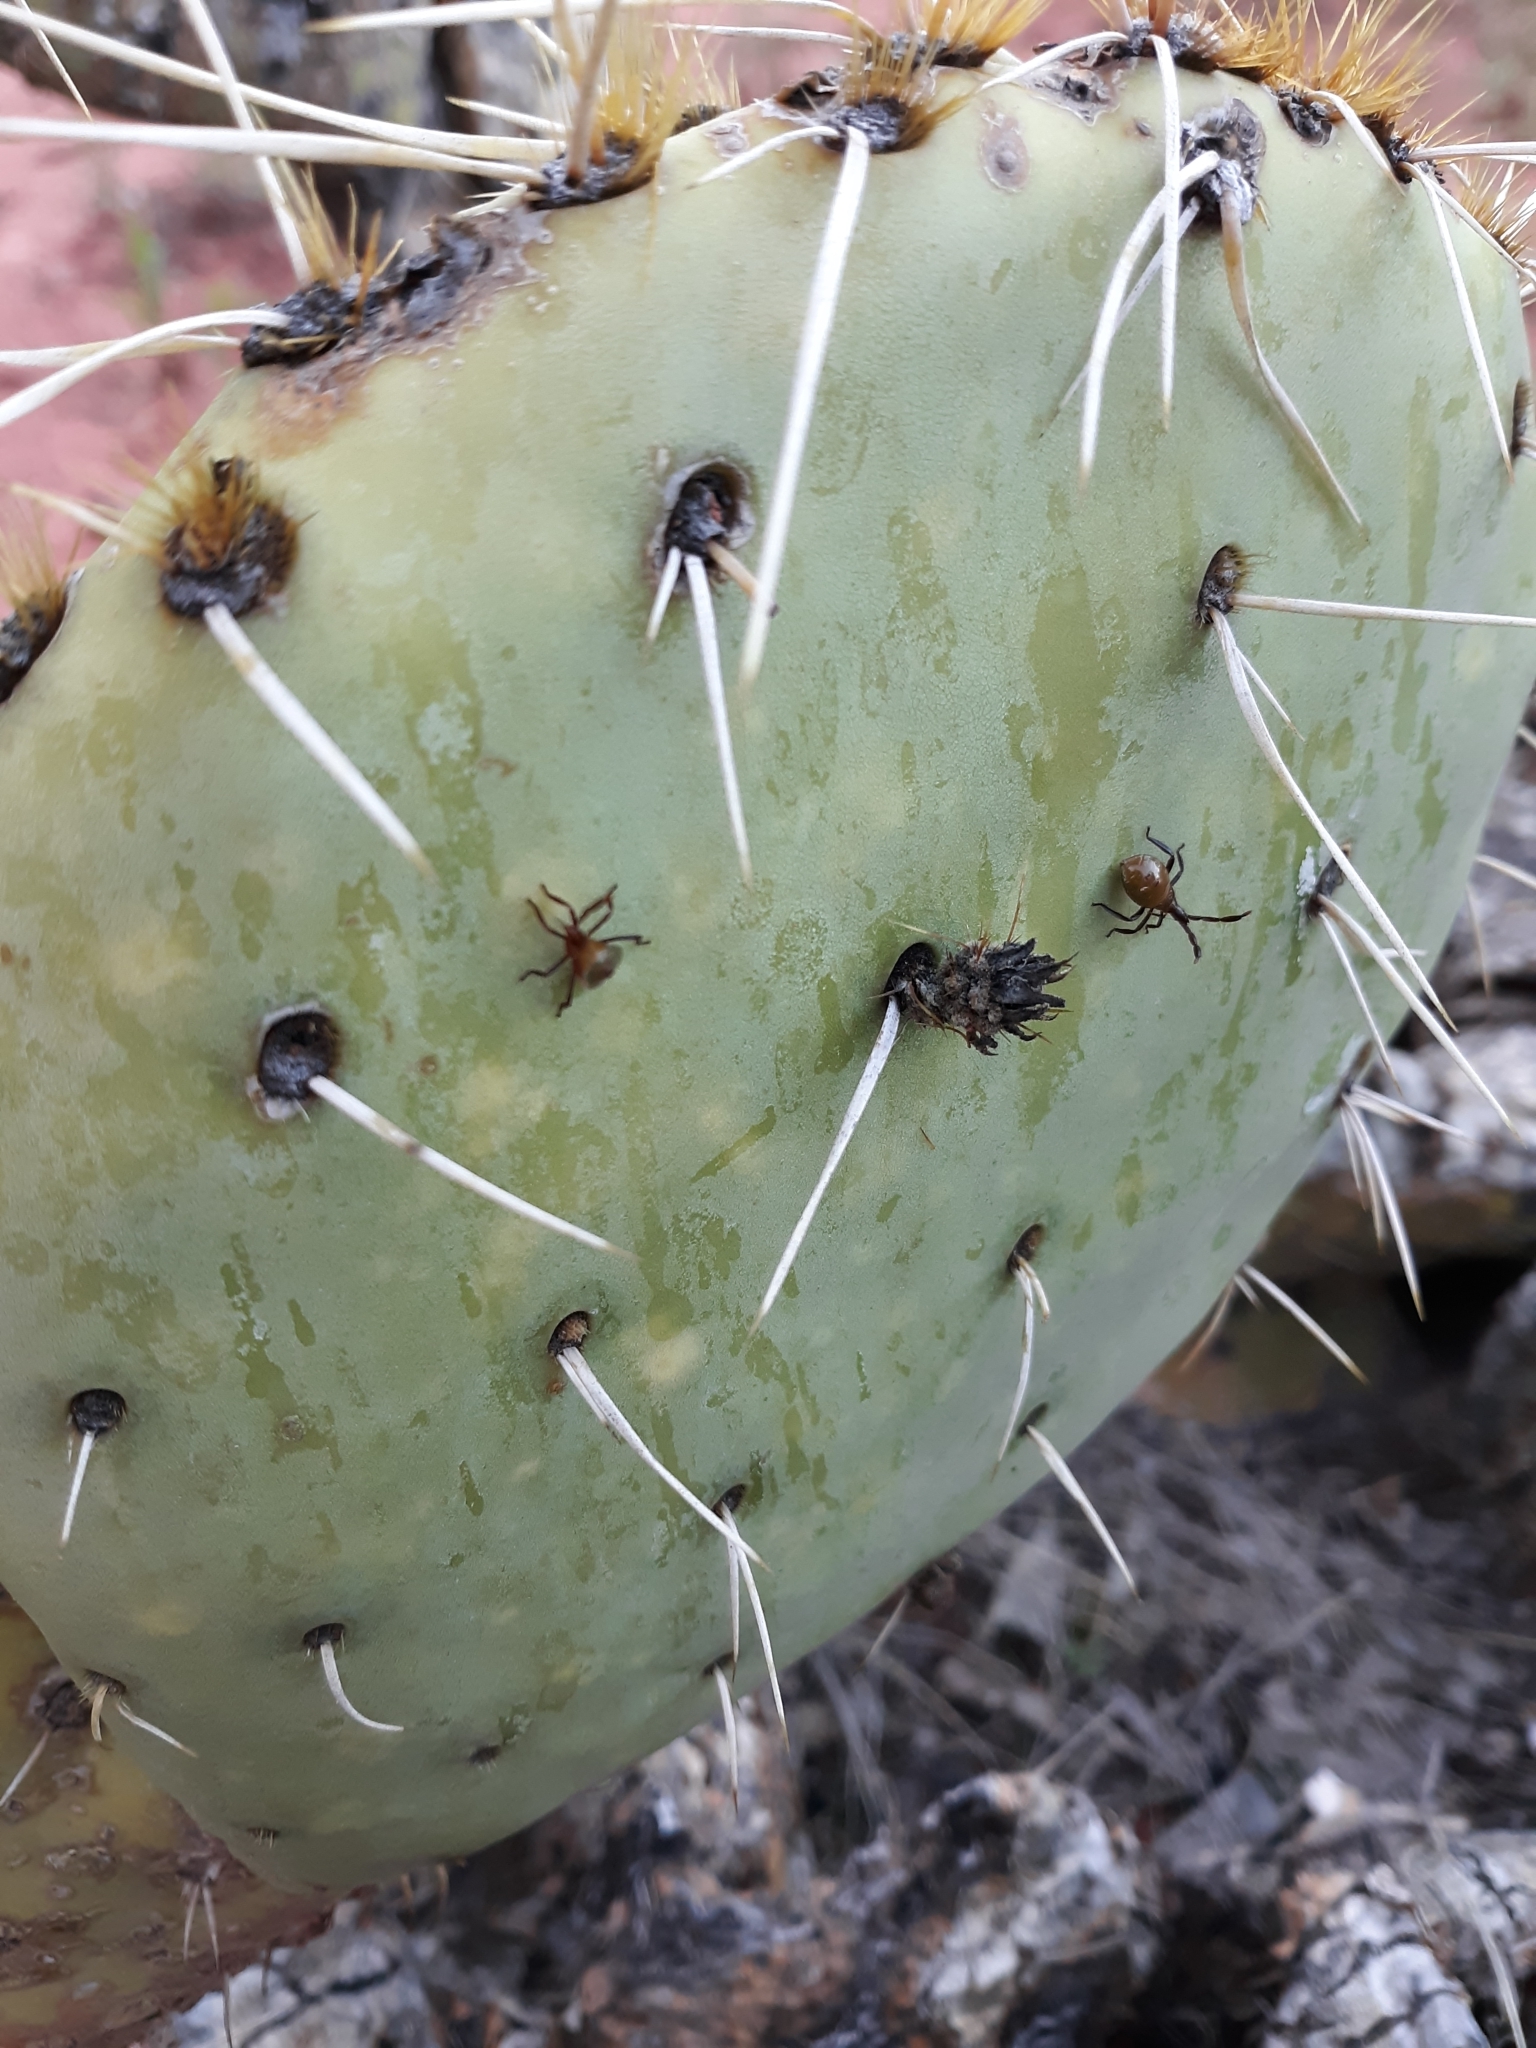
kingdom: Animalia
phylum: Arthropoda
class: Insecta
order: Hemiptera
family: Coreidae
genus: Chelinidea
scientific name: Chelinidea vittiger
